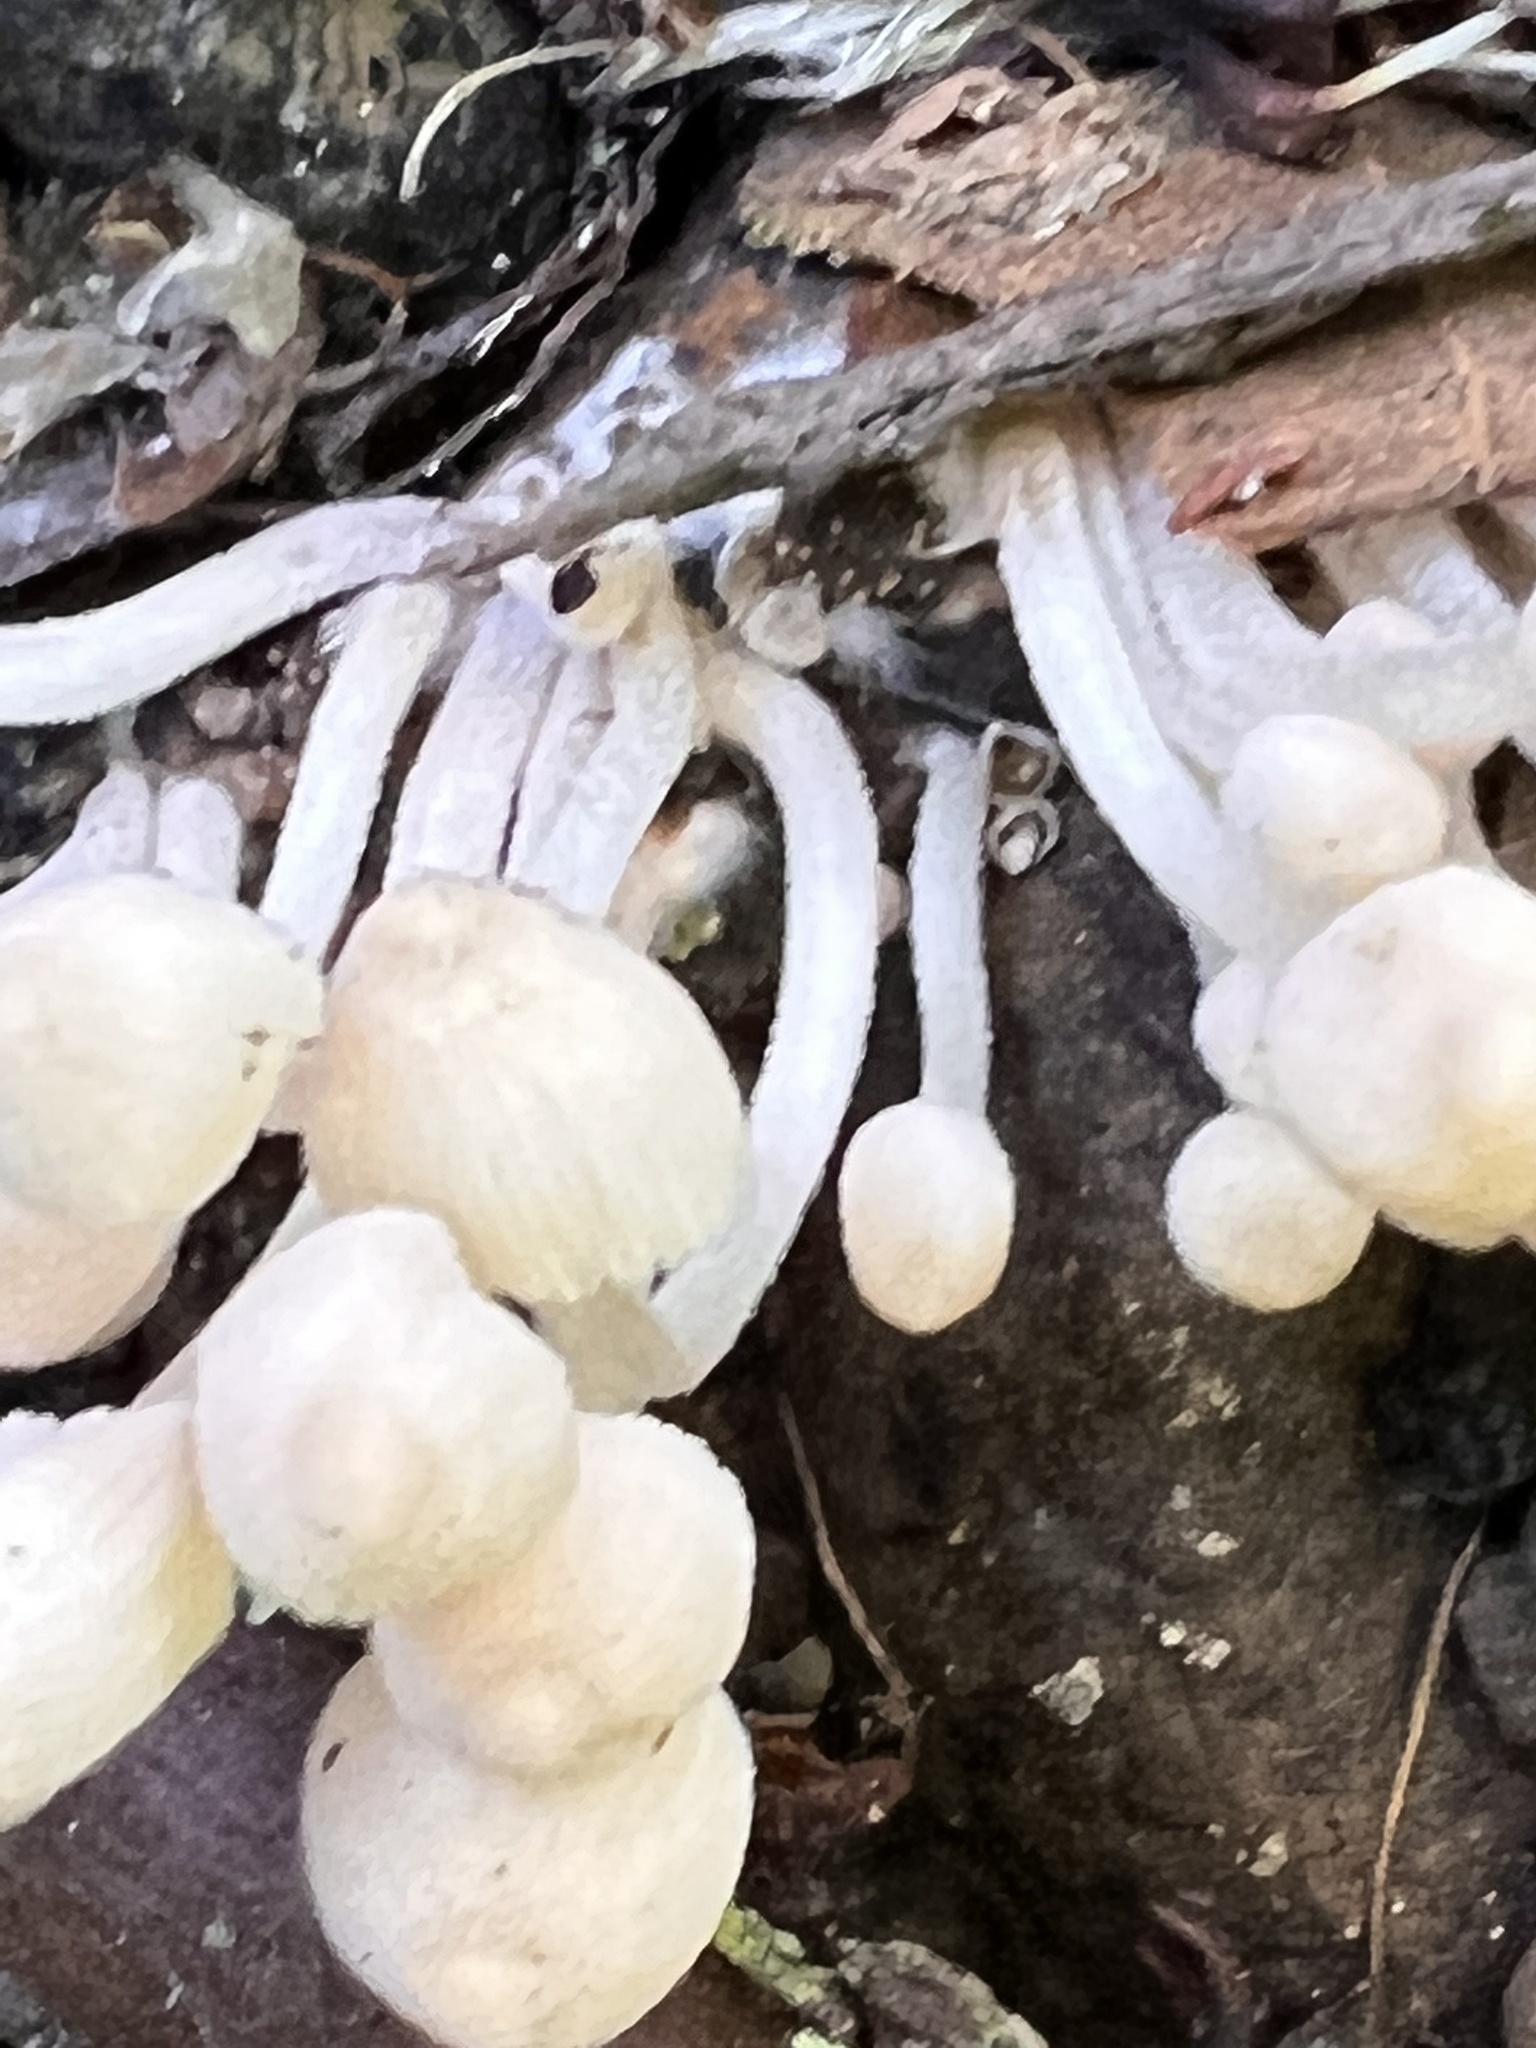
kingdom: Fungi
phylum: Basidiomycota
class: Agaricomycetes
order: Agaricales
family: Psathyrellaceae
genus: Coprinellus
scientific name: Coprinellus disseminatus
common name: Fairies' bonnets
